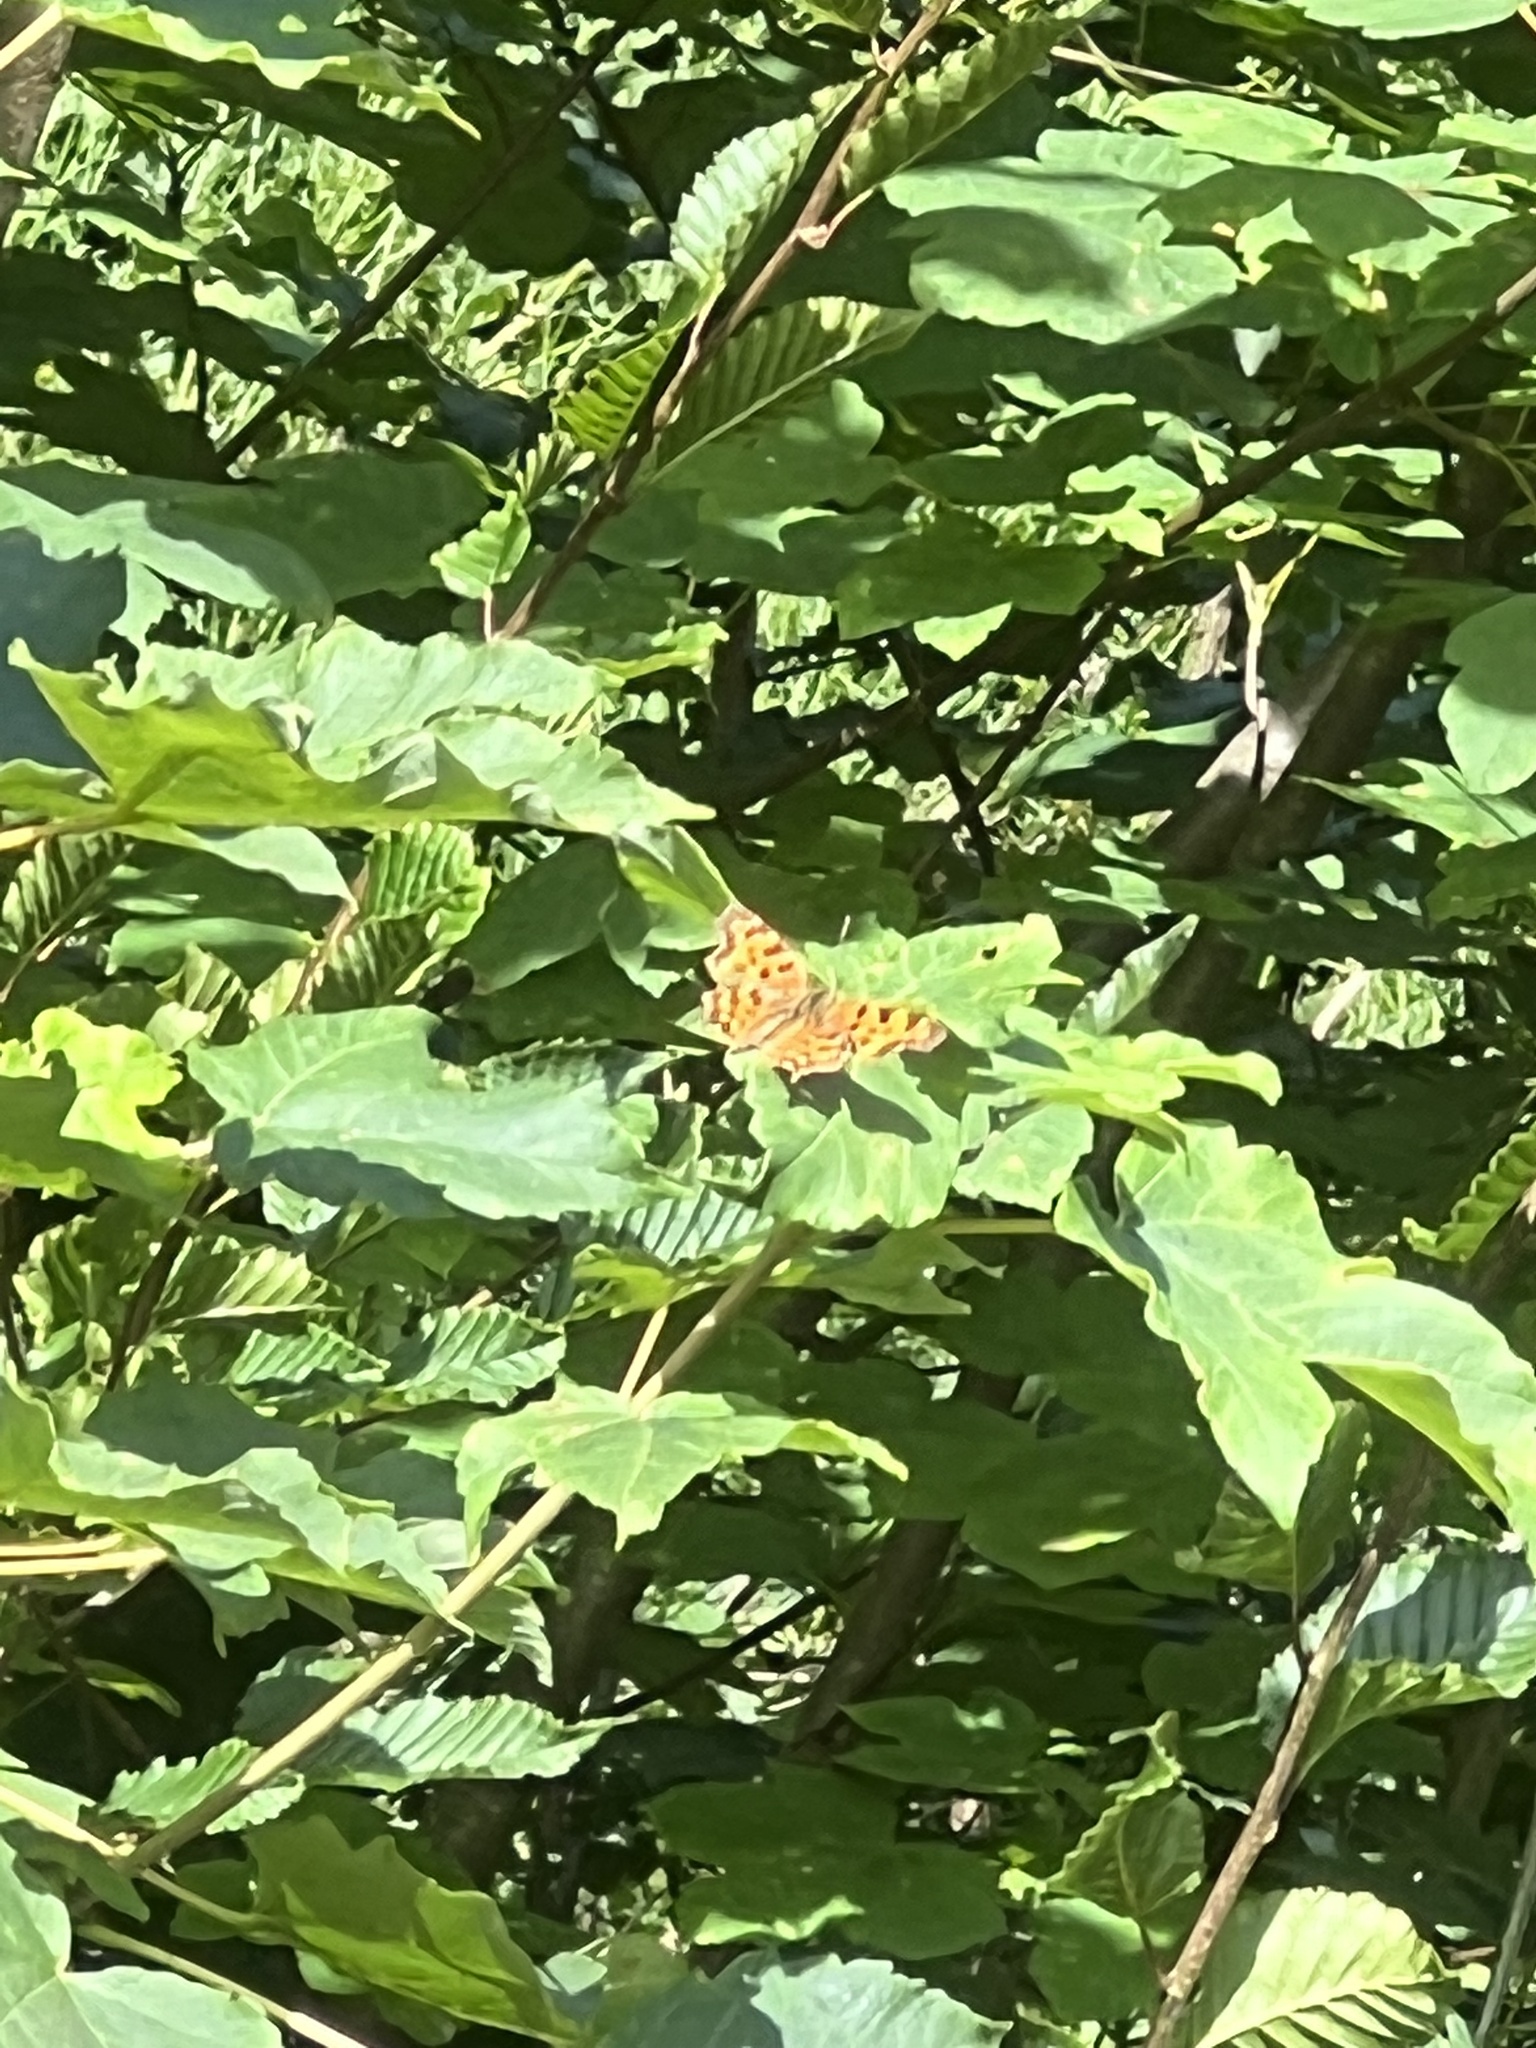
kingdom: Animalia
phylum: Arthropoda
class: Insecta
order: Lepidoptera
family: Nymphalidae
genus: Polygonia
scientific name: Polygonia c-album
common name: Comma
